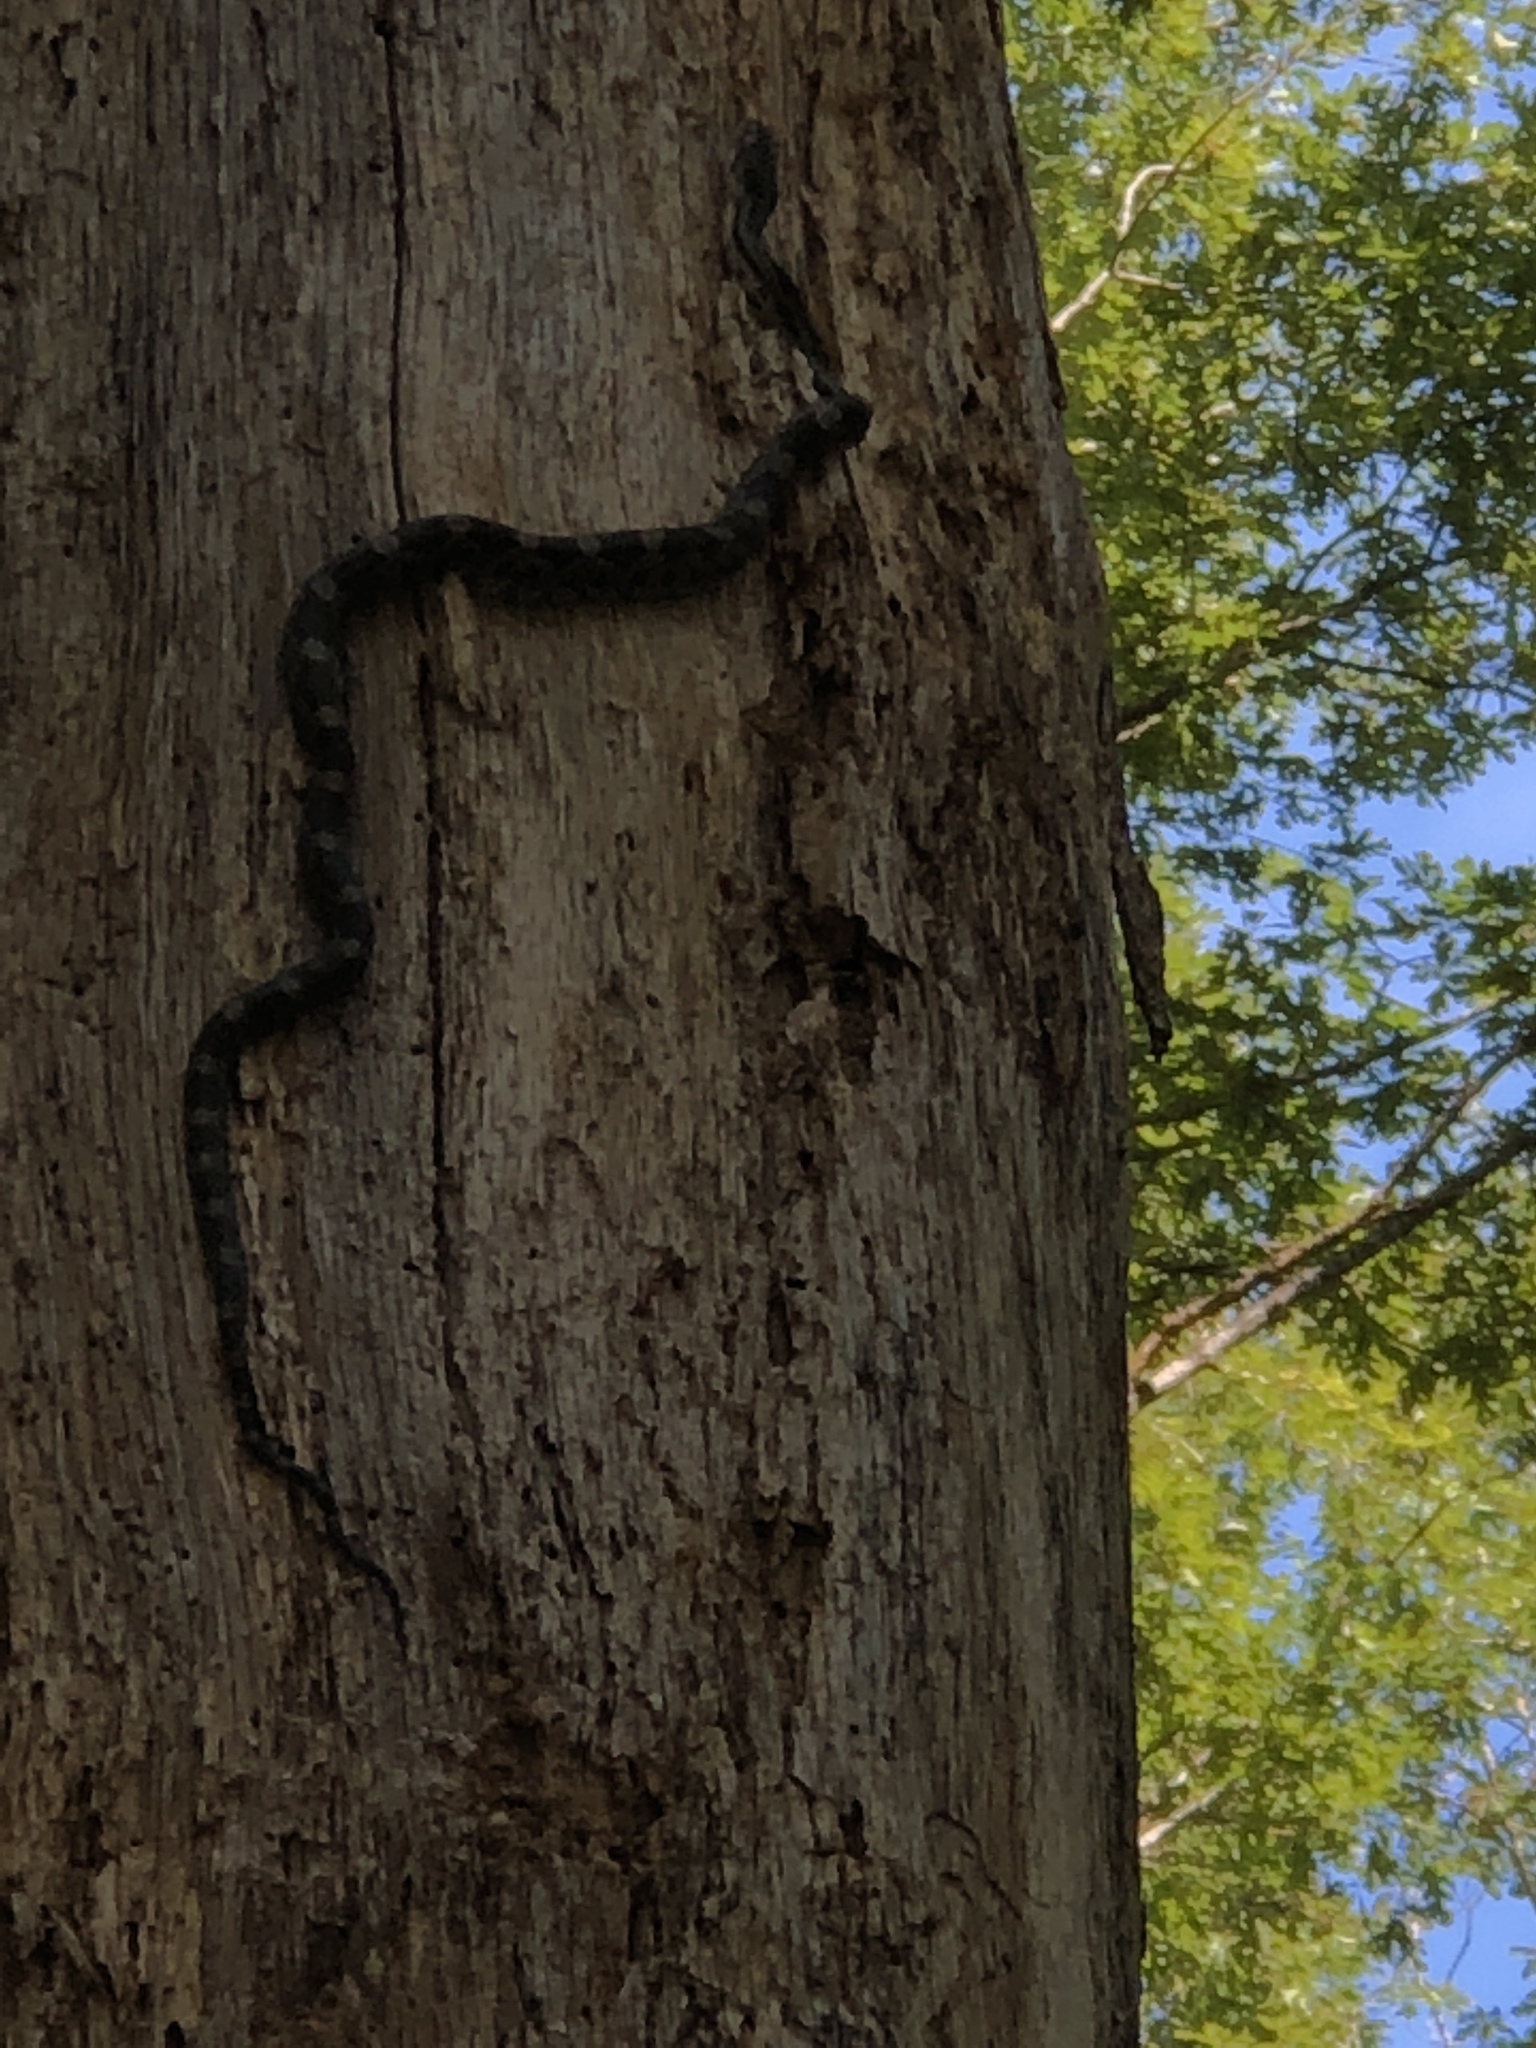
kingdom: Animalia
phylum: Chordata
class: Squamata
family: Colubridae
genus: Pantherophis
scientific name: Pantherophis alleghaniensis
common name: Eastern rat snake
